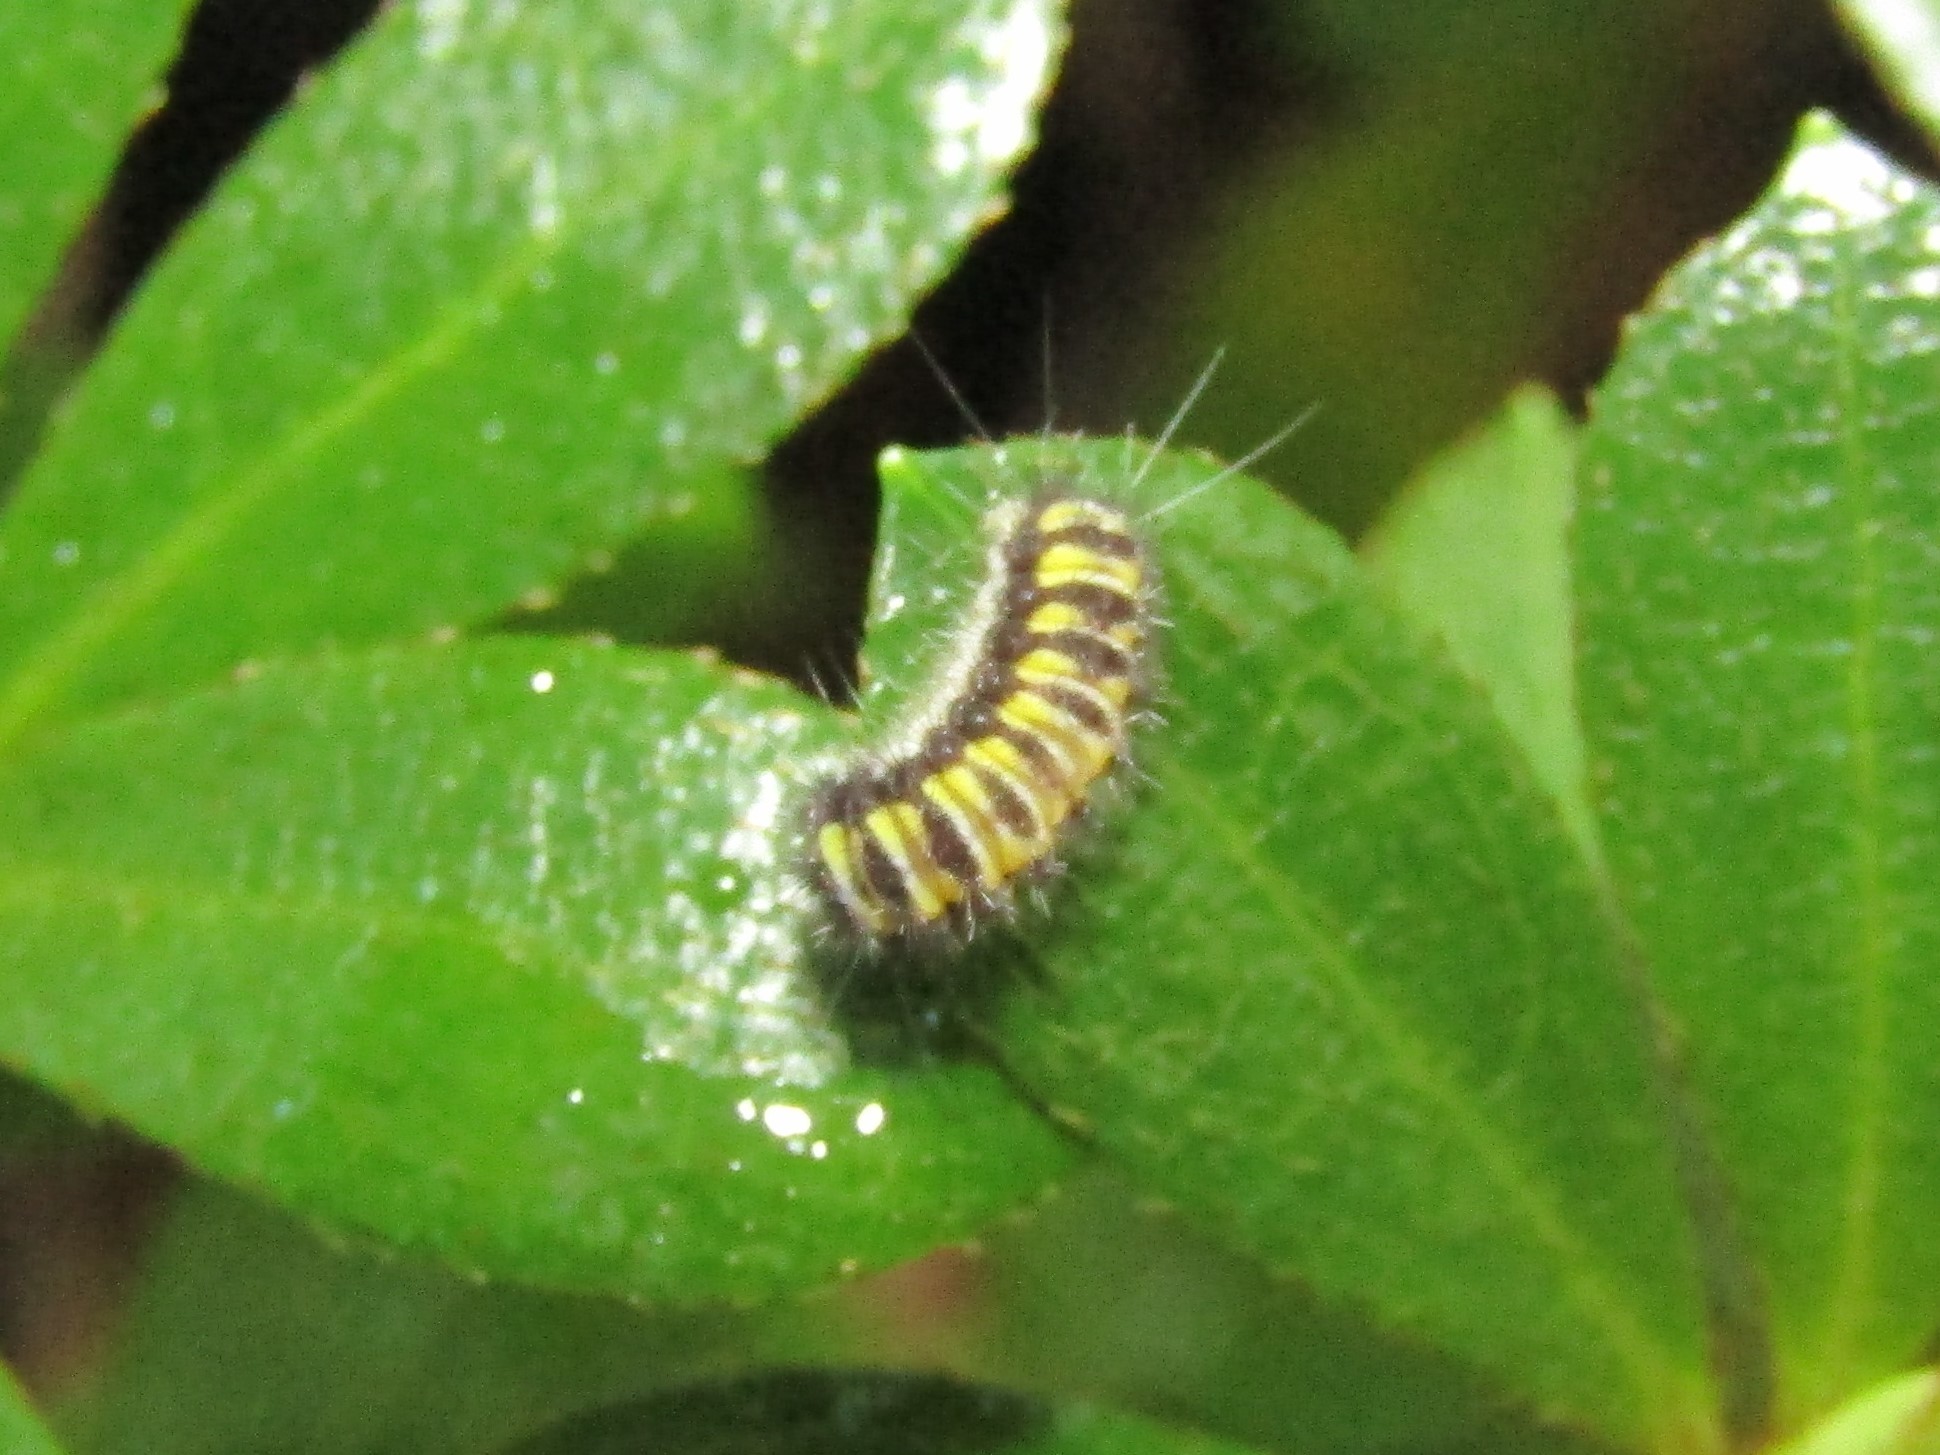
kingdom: Animalia
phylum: Arthropoda
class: Insecta
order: Lepidoptera
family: Zygaenidae
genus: Harrisina
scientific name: Harrisina americana
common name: Grapeleaf skeletonizer moth
